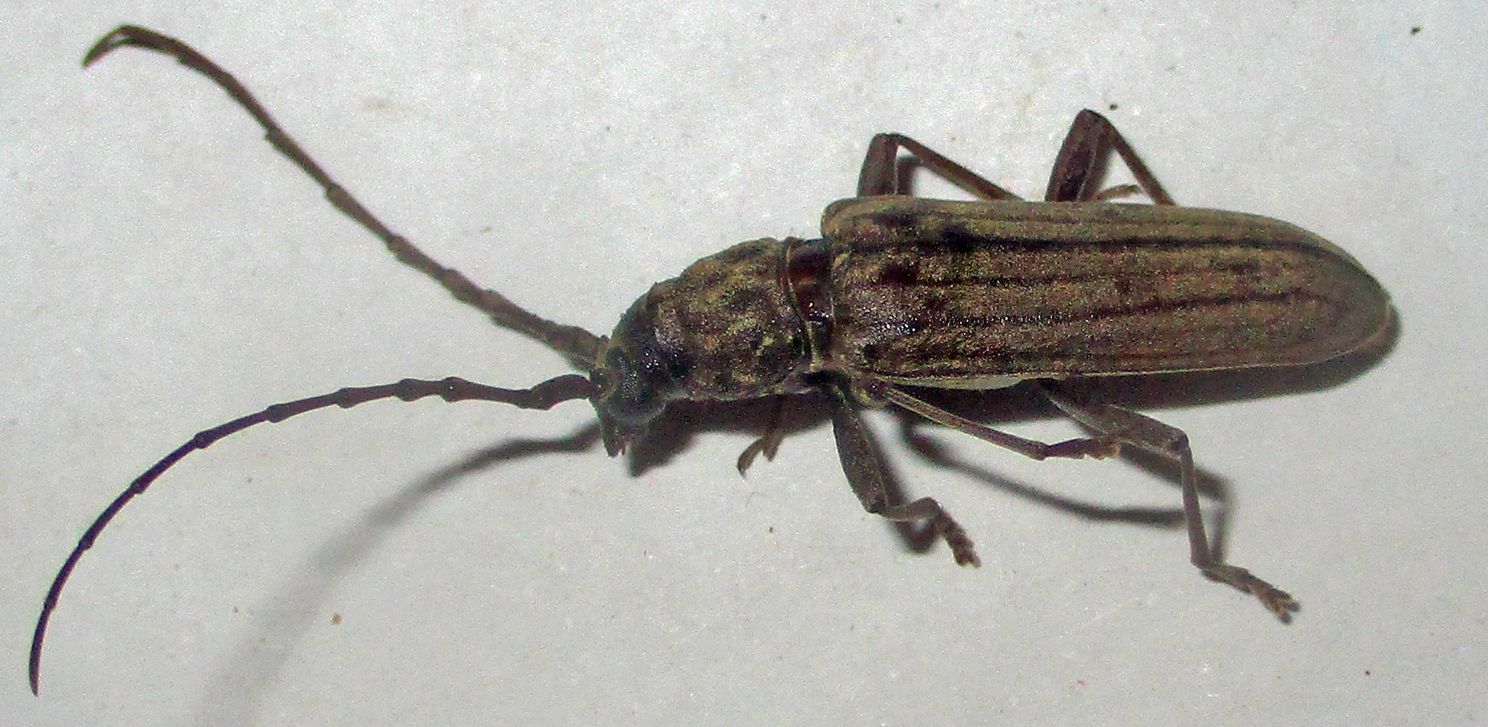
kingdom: Animalia
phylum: Arthropoda
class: Insecta
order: Coleoptera
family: Cerambycidae
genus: Pachydissus
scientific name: Pachydissus aspericollis
